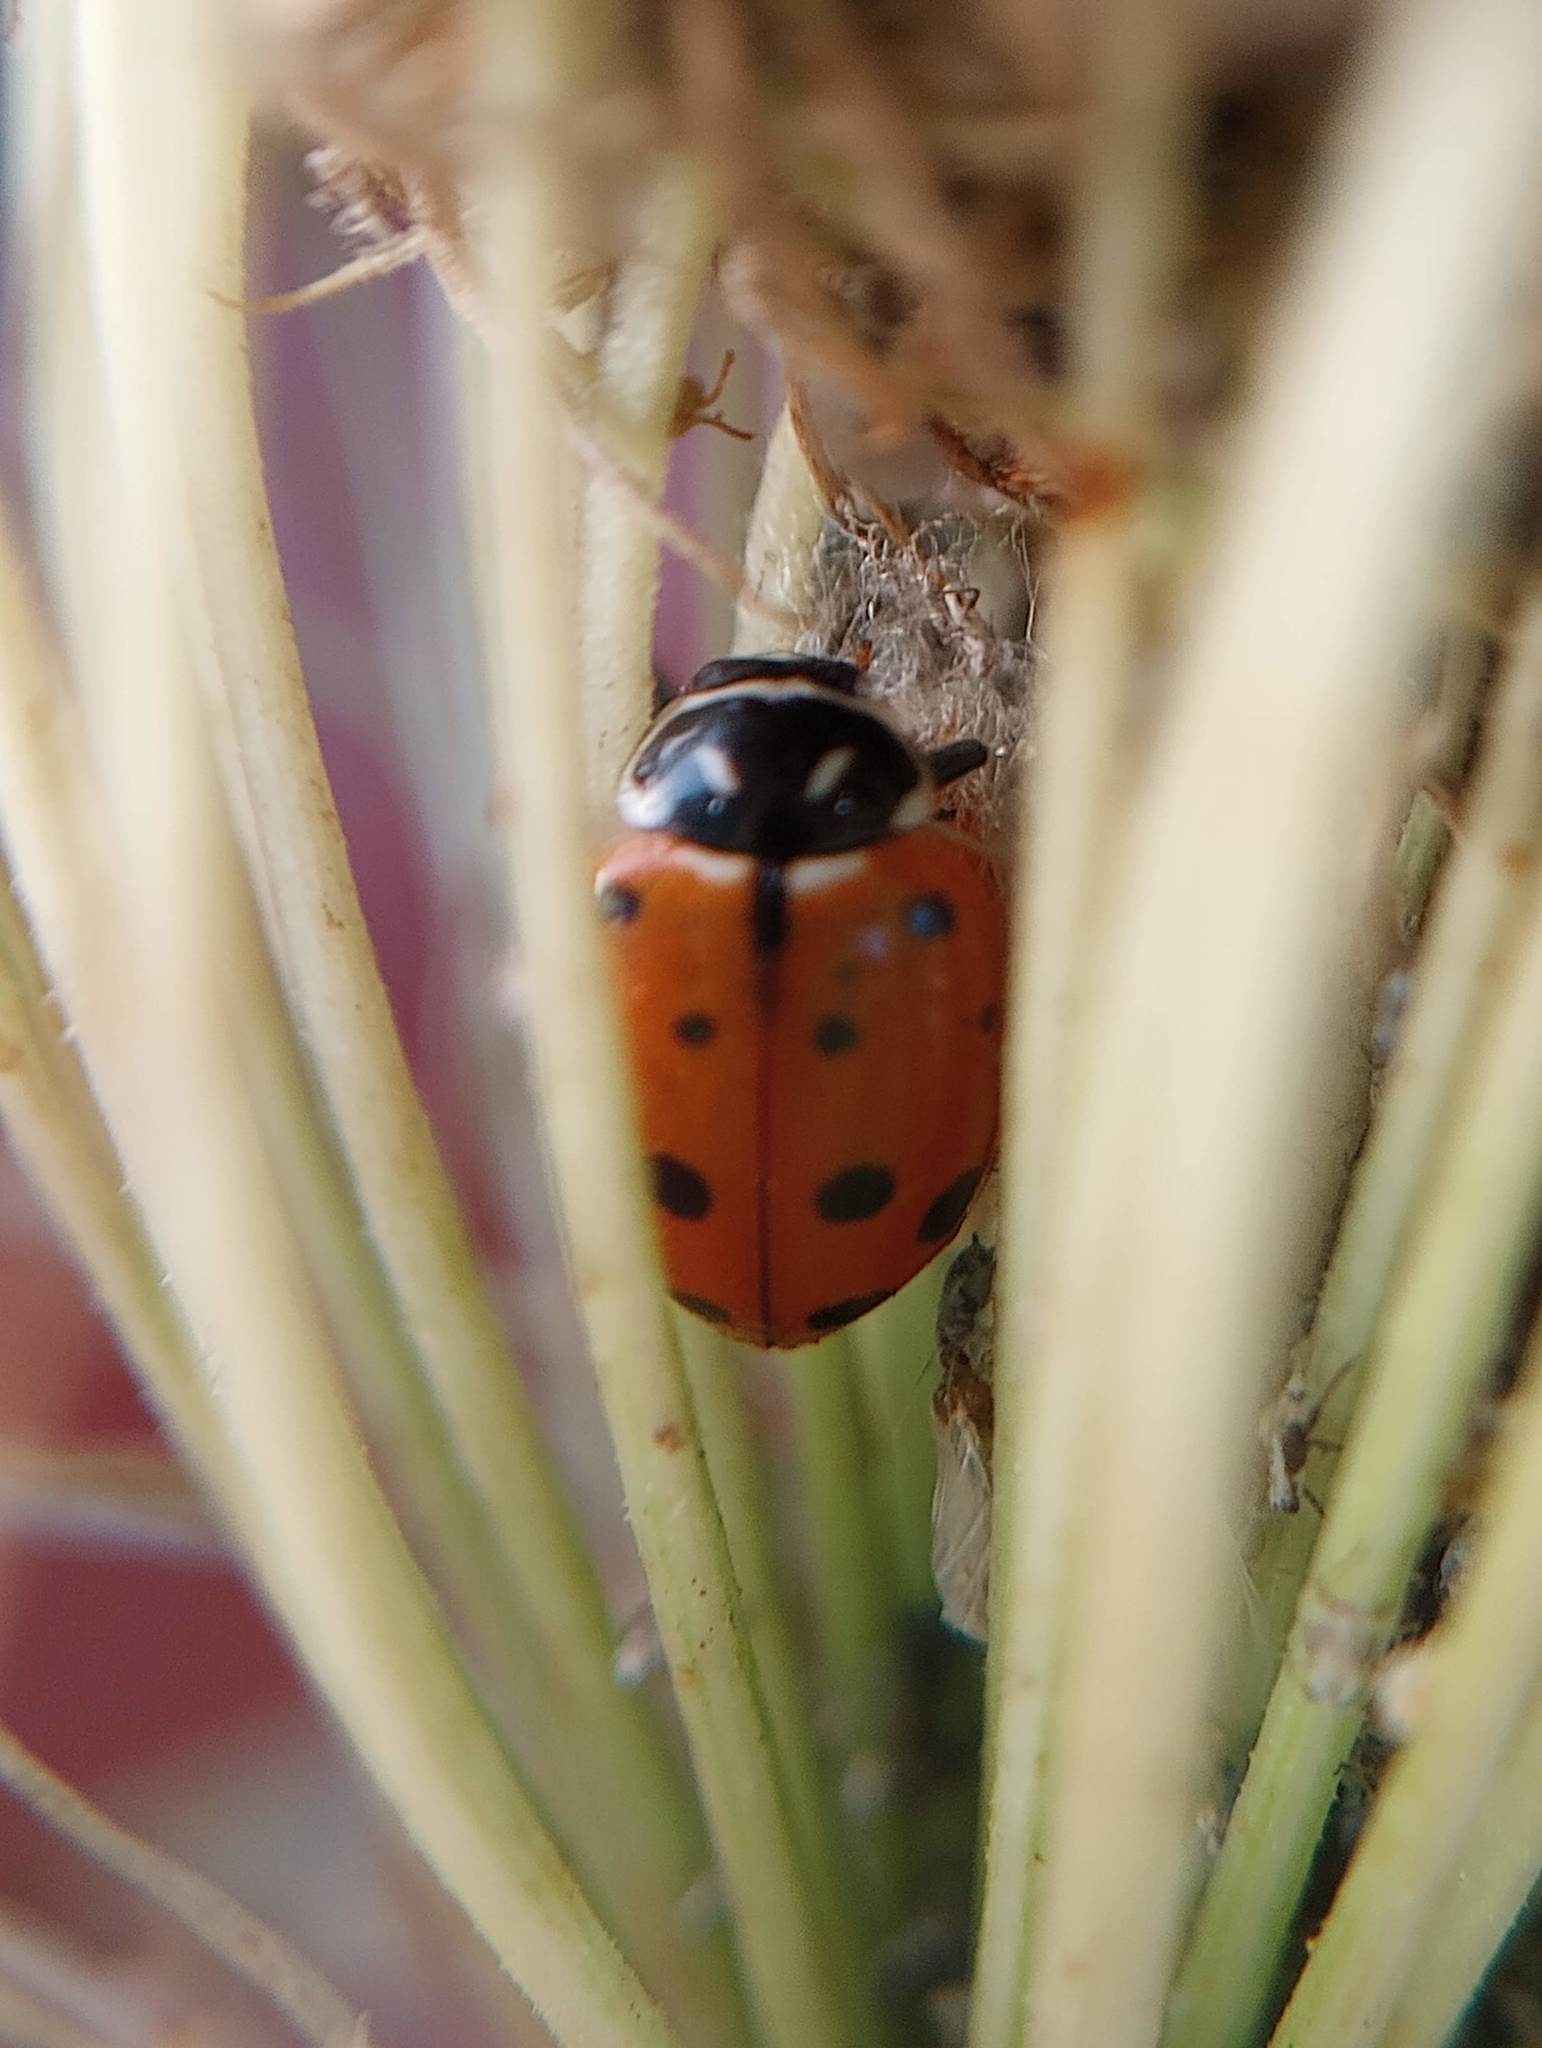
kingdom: Animalia
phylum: Arthropoda
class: Insecta
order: Coleoptera
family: Coccinellidae
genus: Hippodamia
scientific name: Hippodamia convergens
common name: Convergent lady beetle
